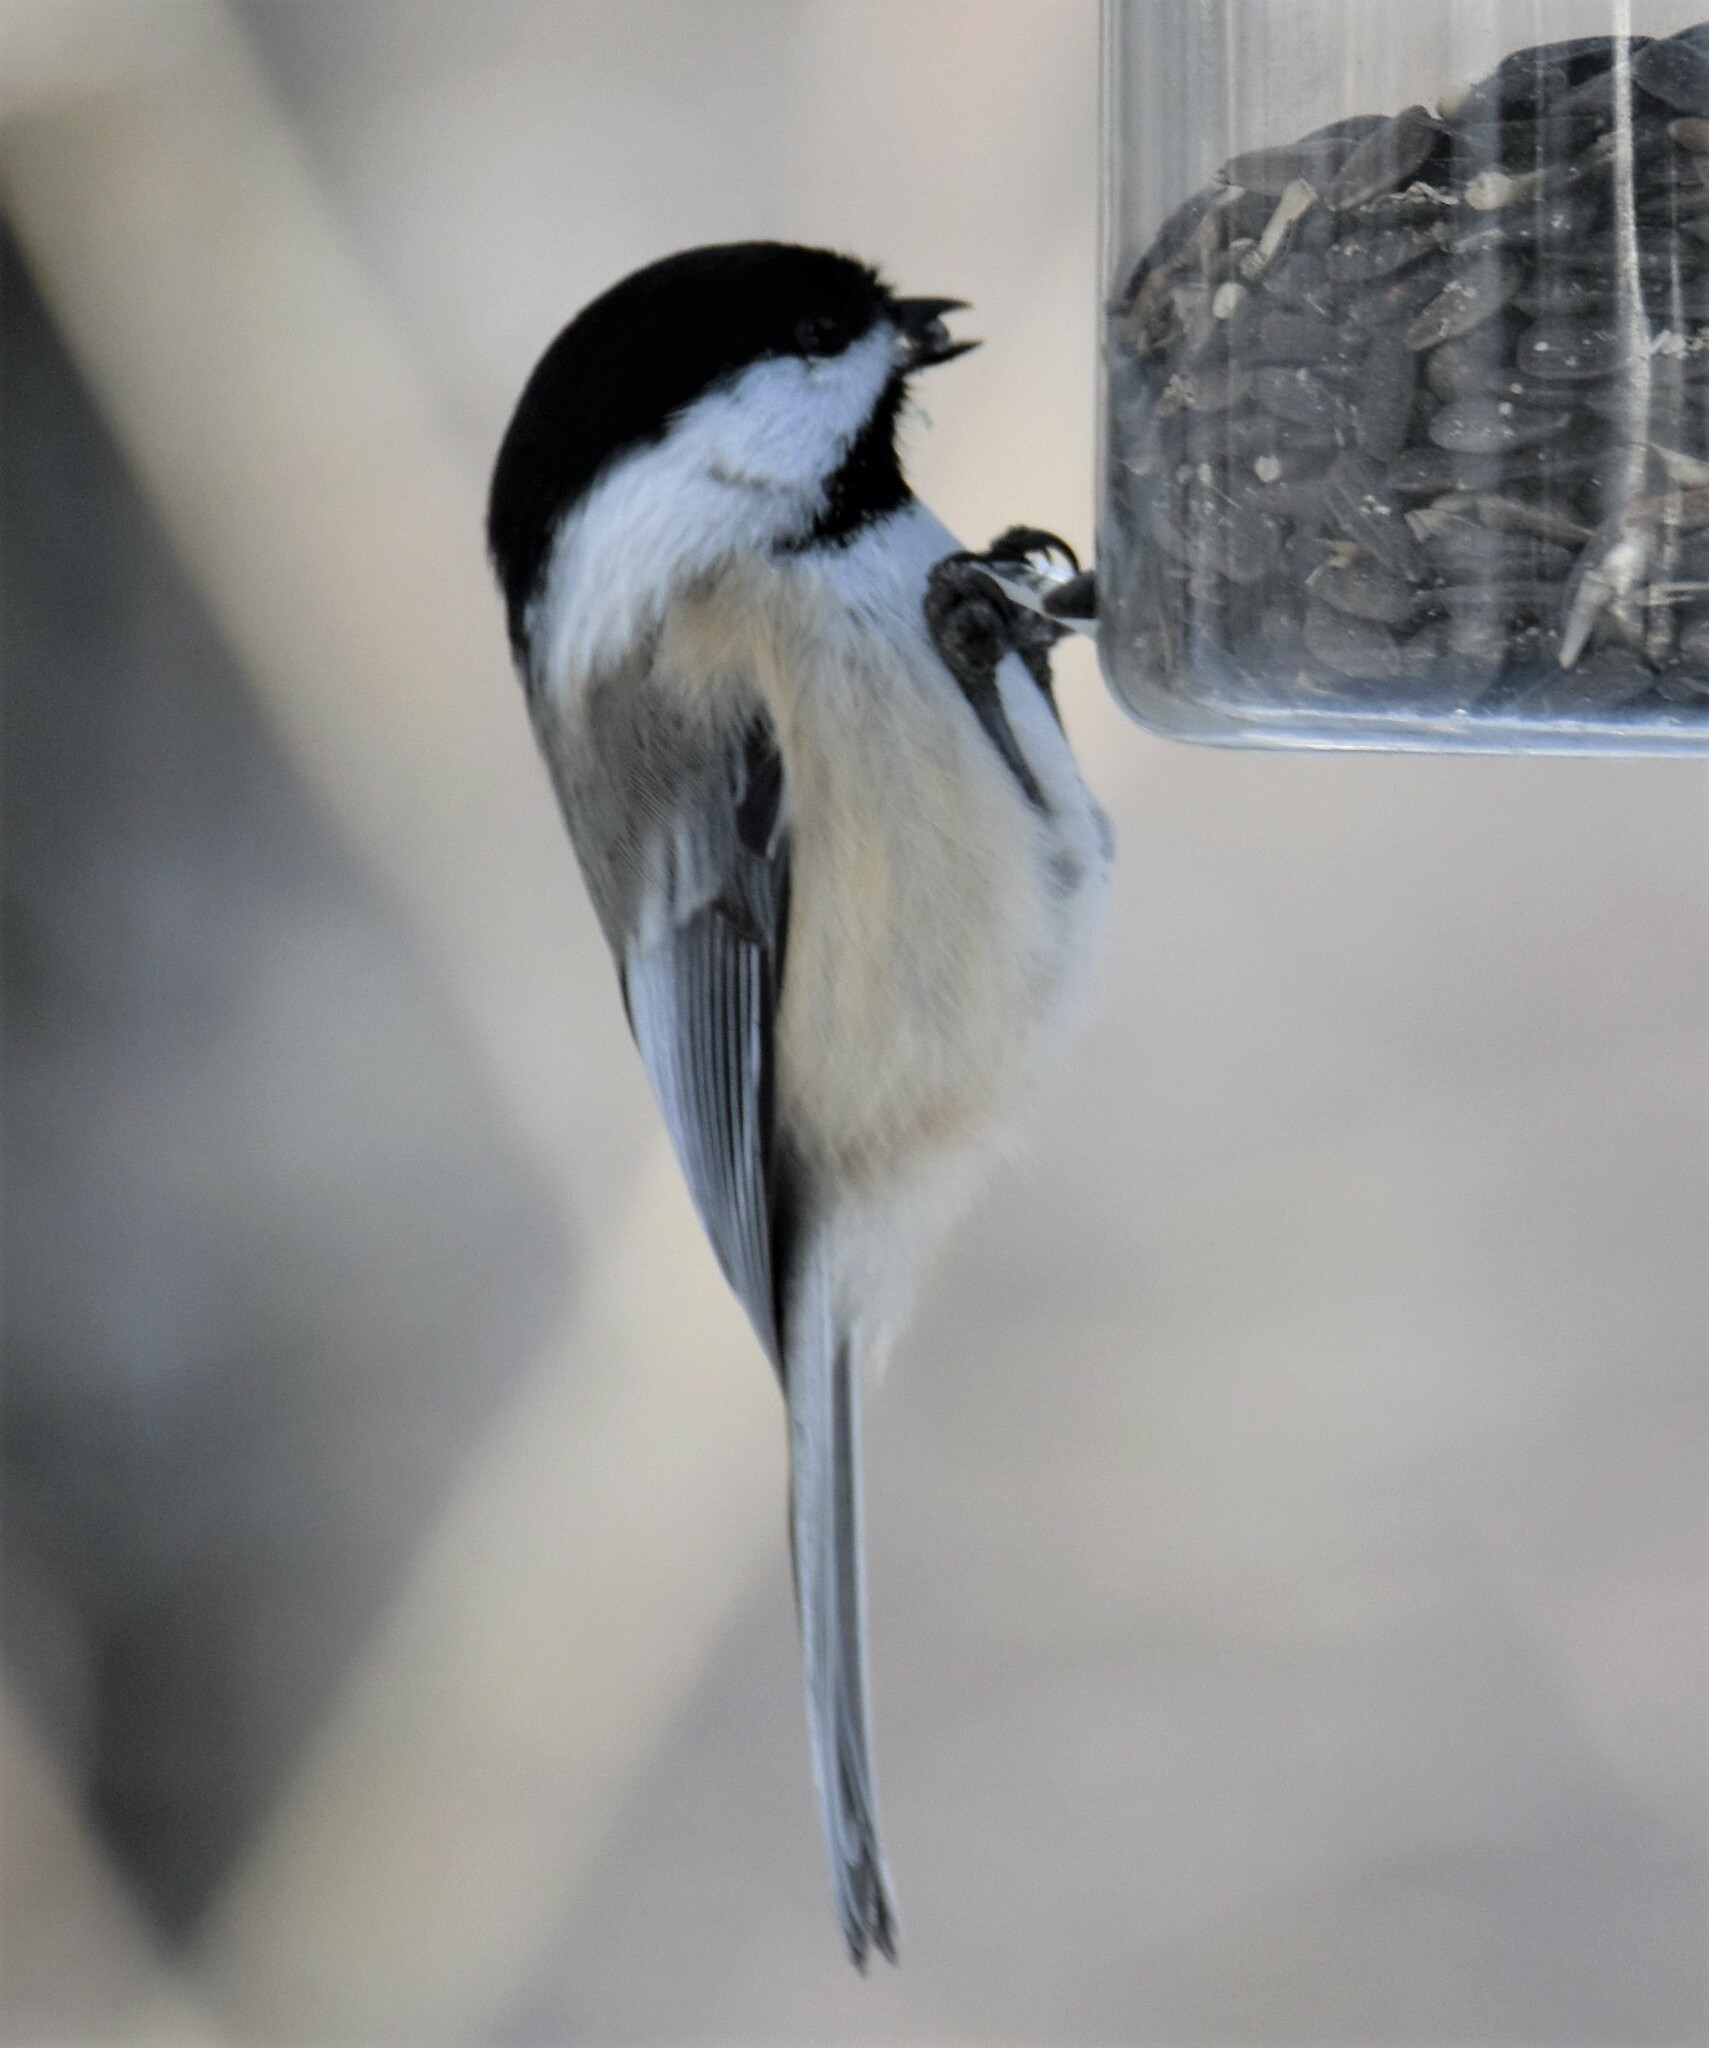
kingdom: Animalia
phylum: Chordata
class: Aves
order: Passeriformes
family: Paridae
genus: Poecile
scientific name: Poecile atricapillus
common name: Black-capped chickadee
